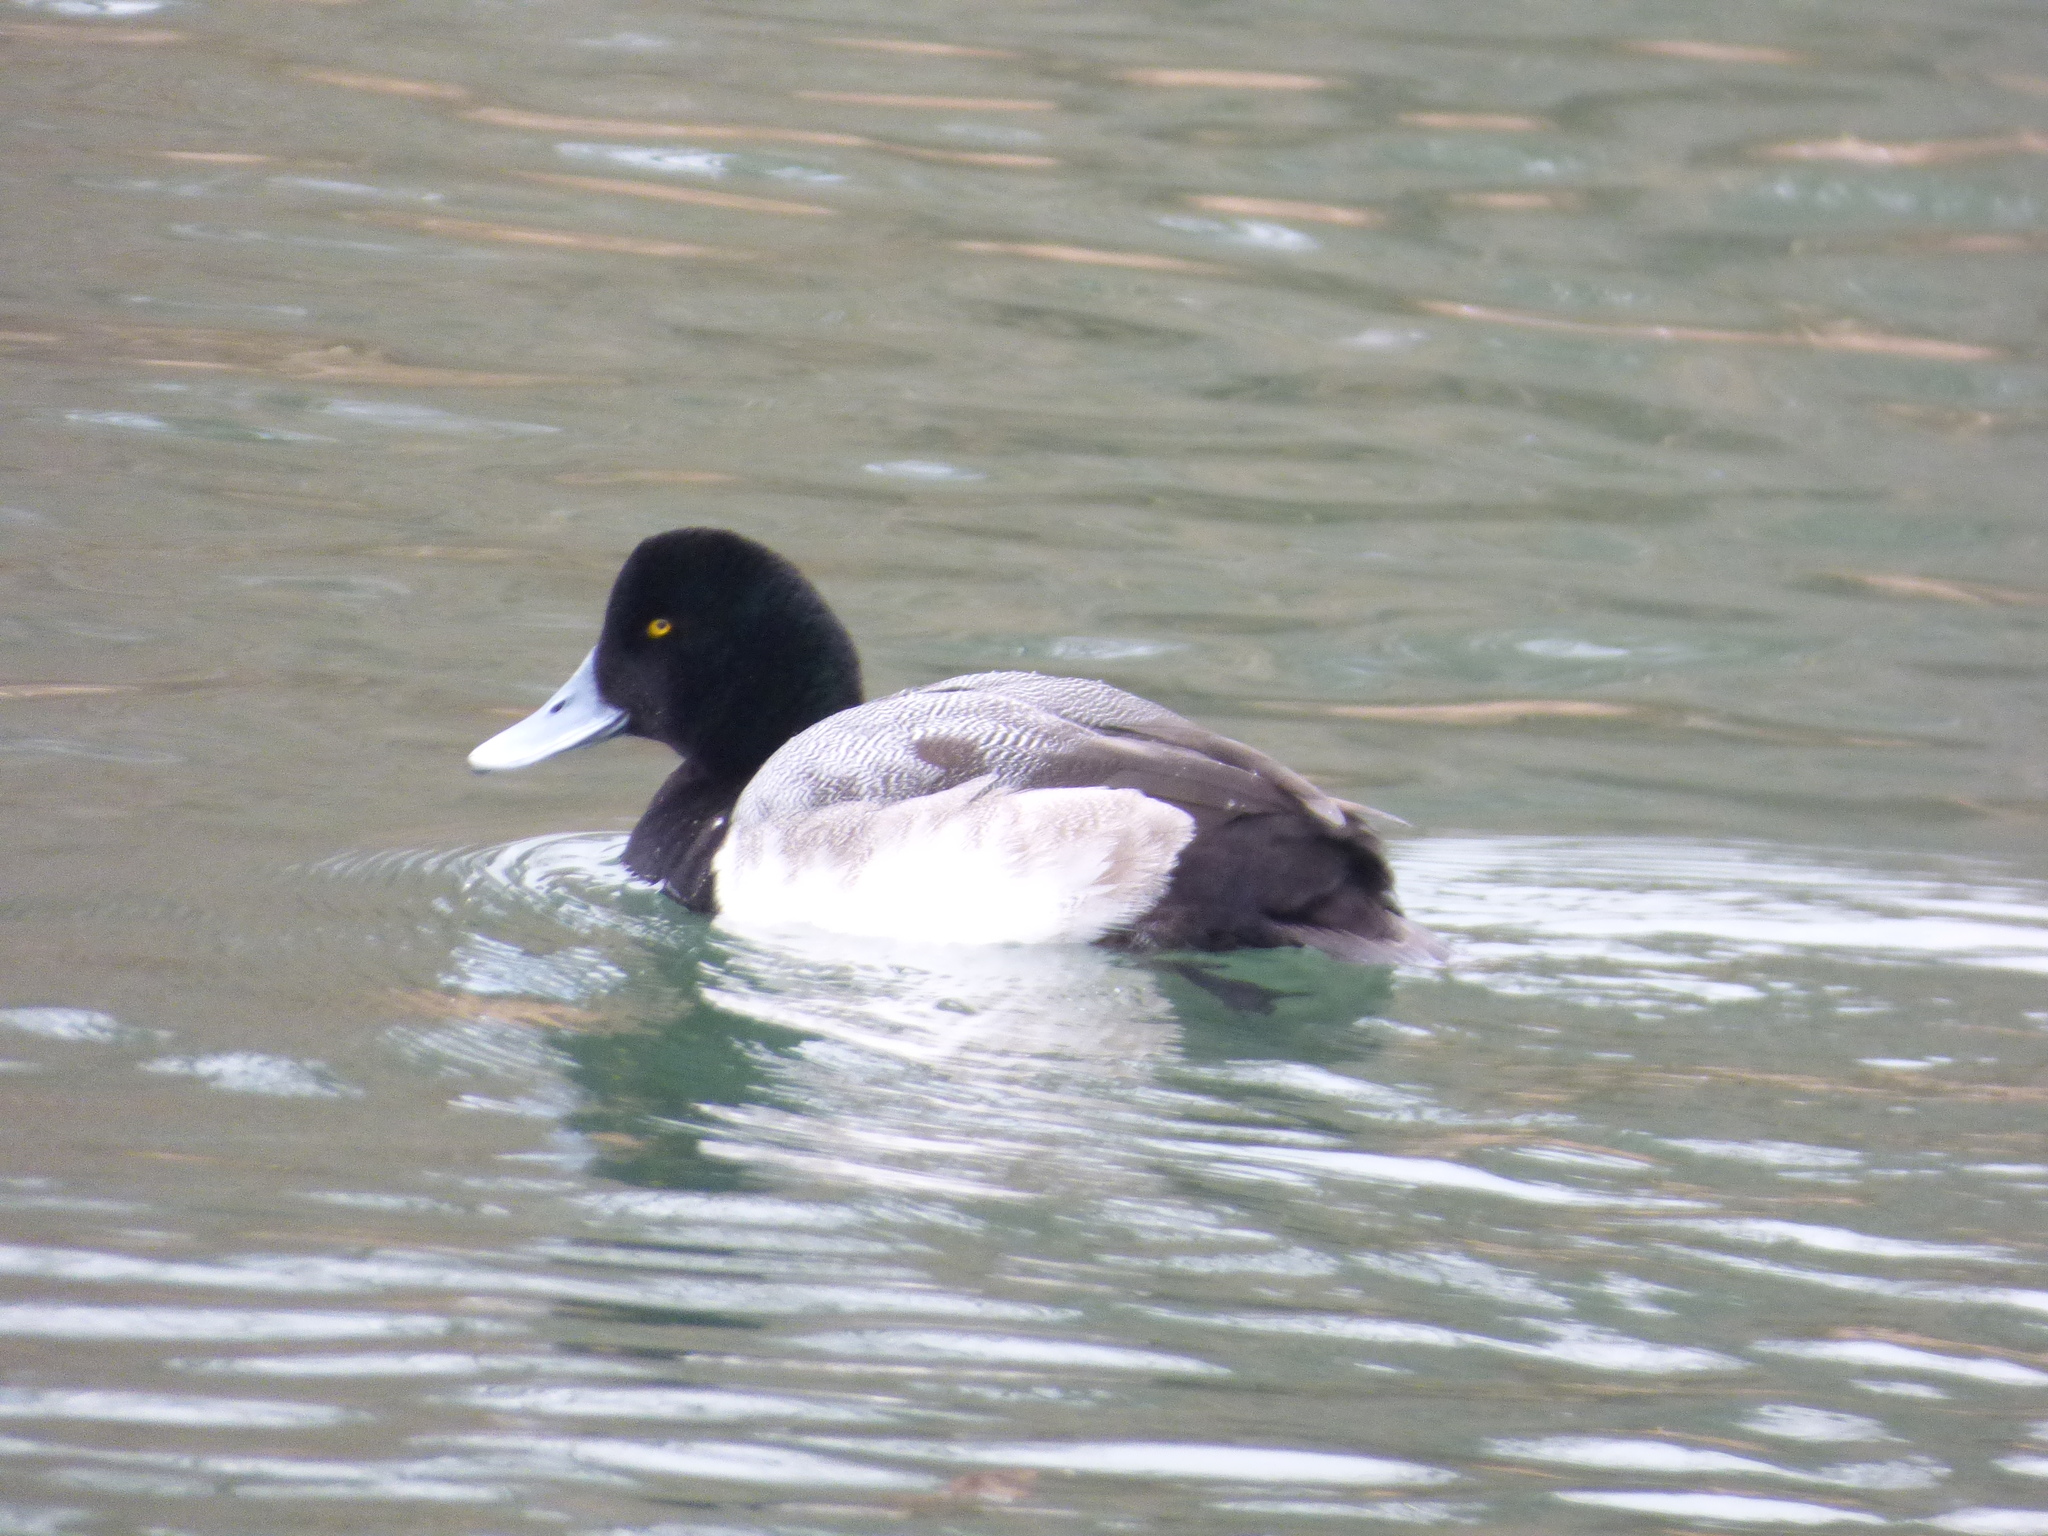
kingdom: Animalia
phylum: Chordata
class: Aves
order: Anseriformes
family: Anatidae
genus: Aythya
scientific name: Aythya marila
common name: Greater scaup
